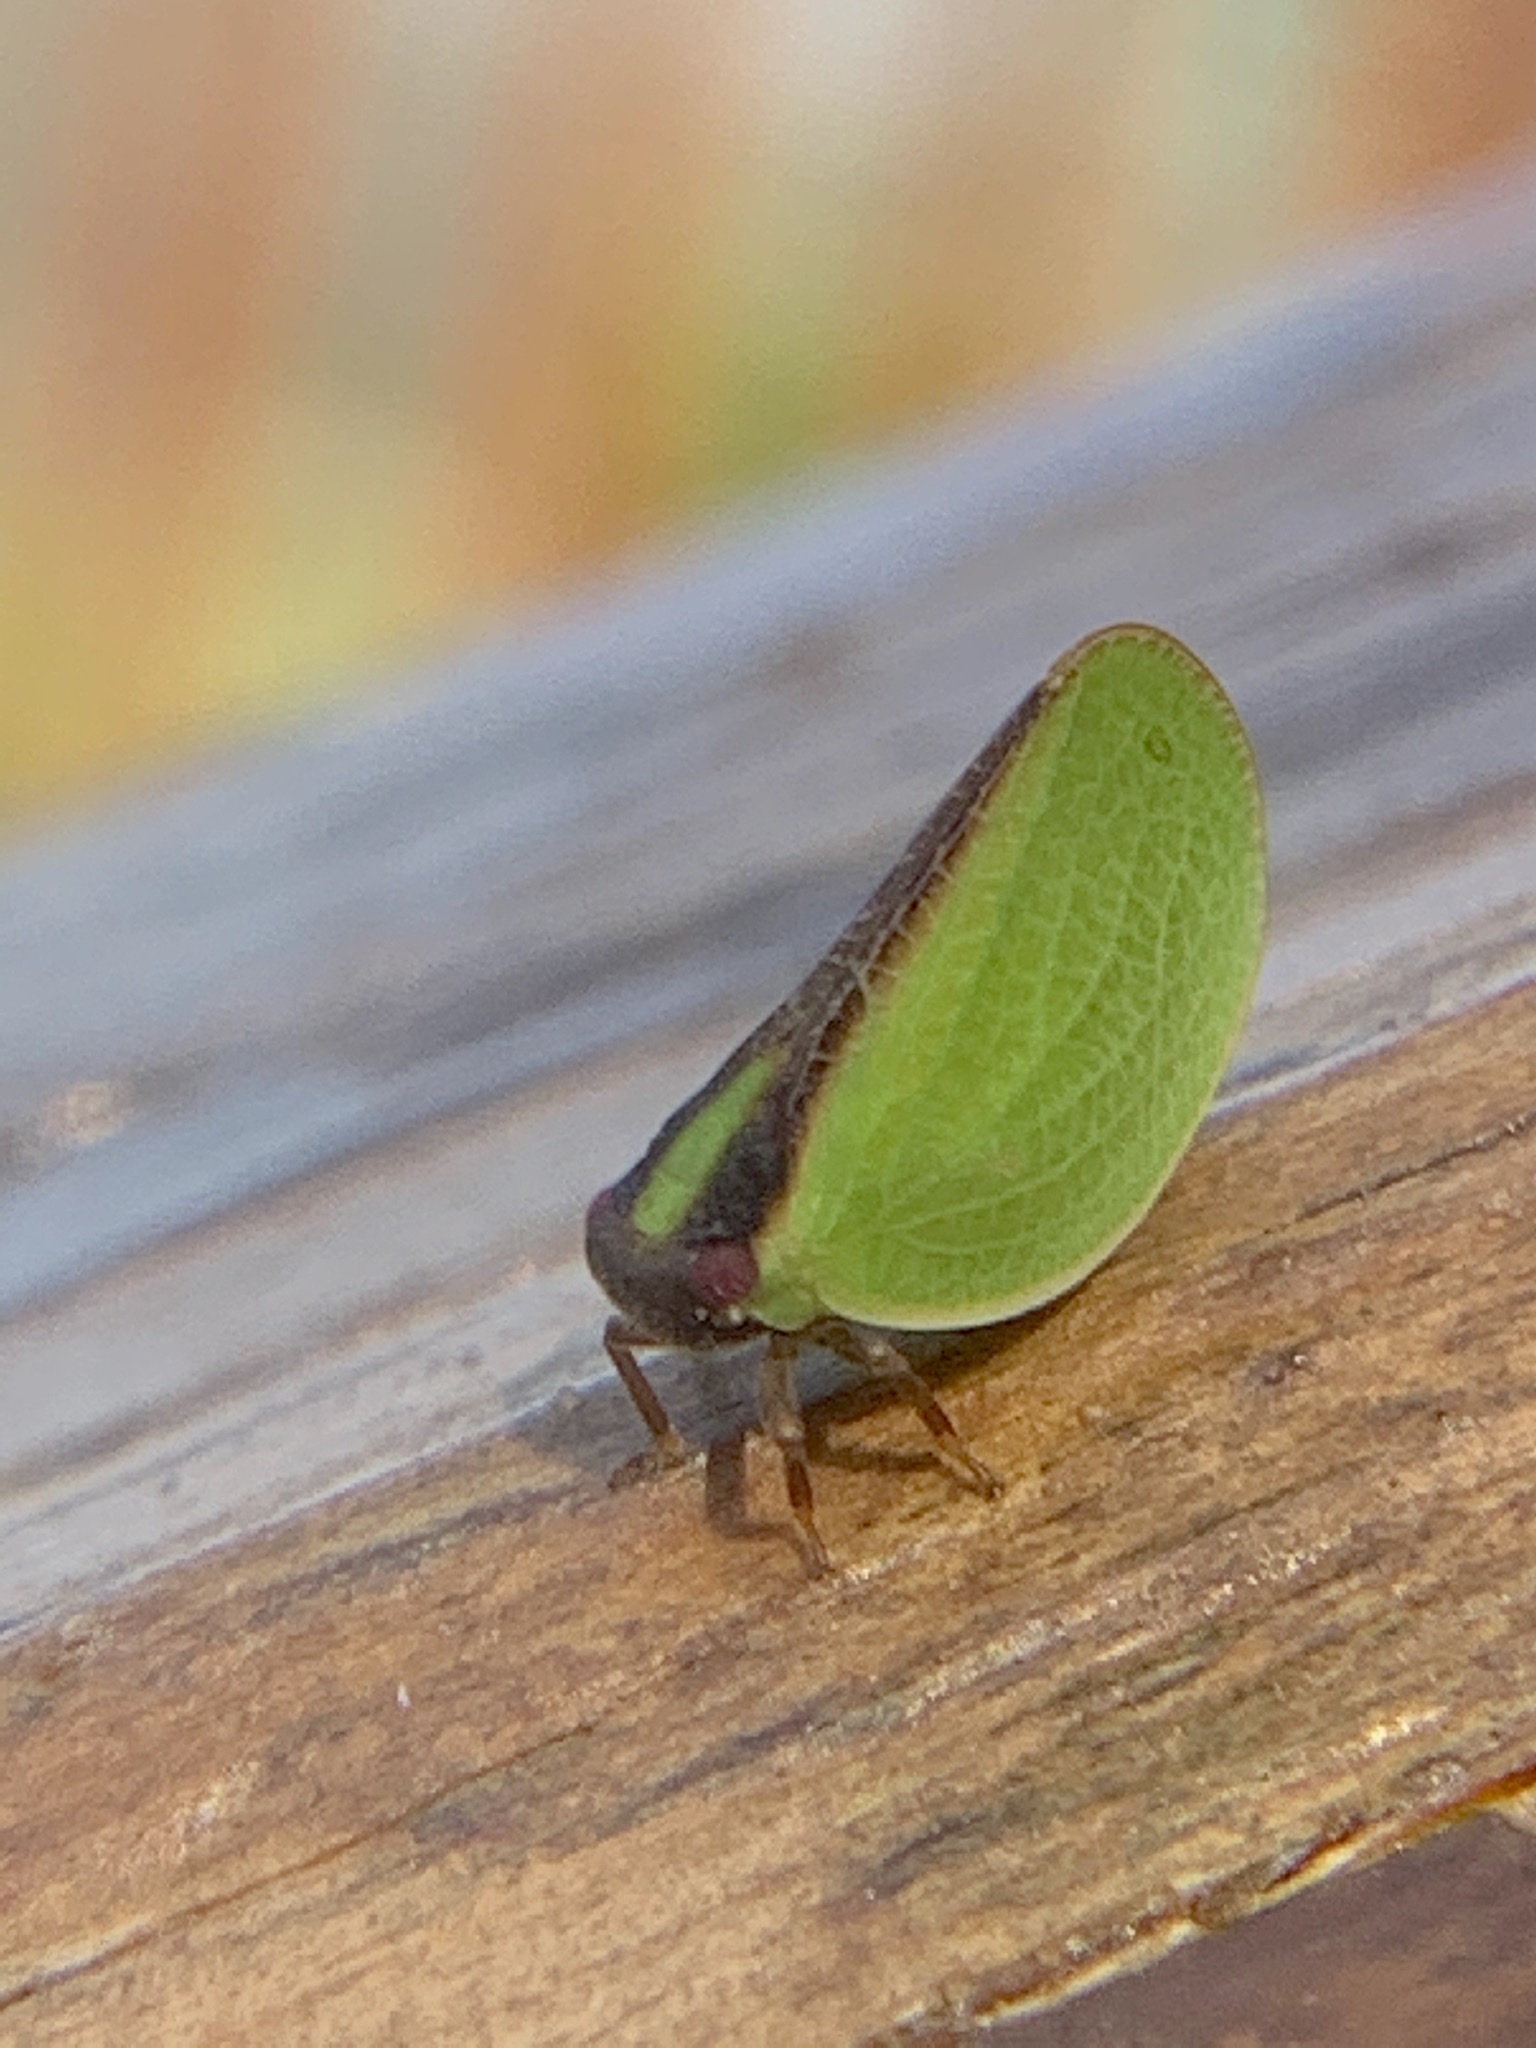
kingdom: Animalia
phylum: Arthropoda
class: Insecta
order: Hemiptera
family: Acanaloniidae
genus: Acanalonia
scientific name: Acanalonia bivittata
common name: Two-striped planthopper
